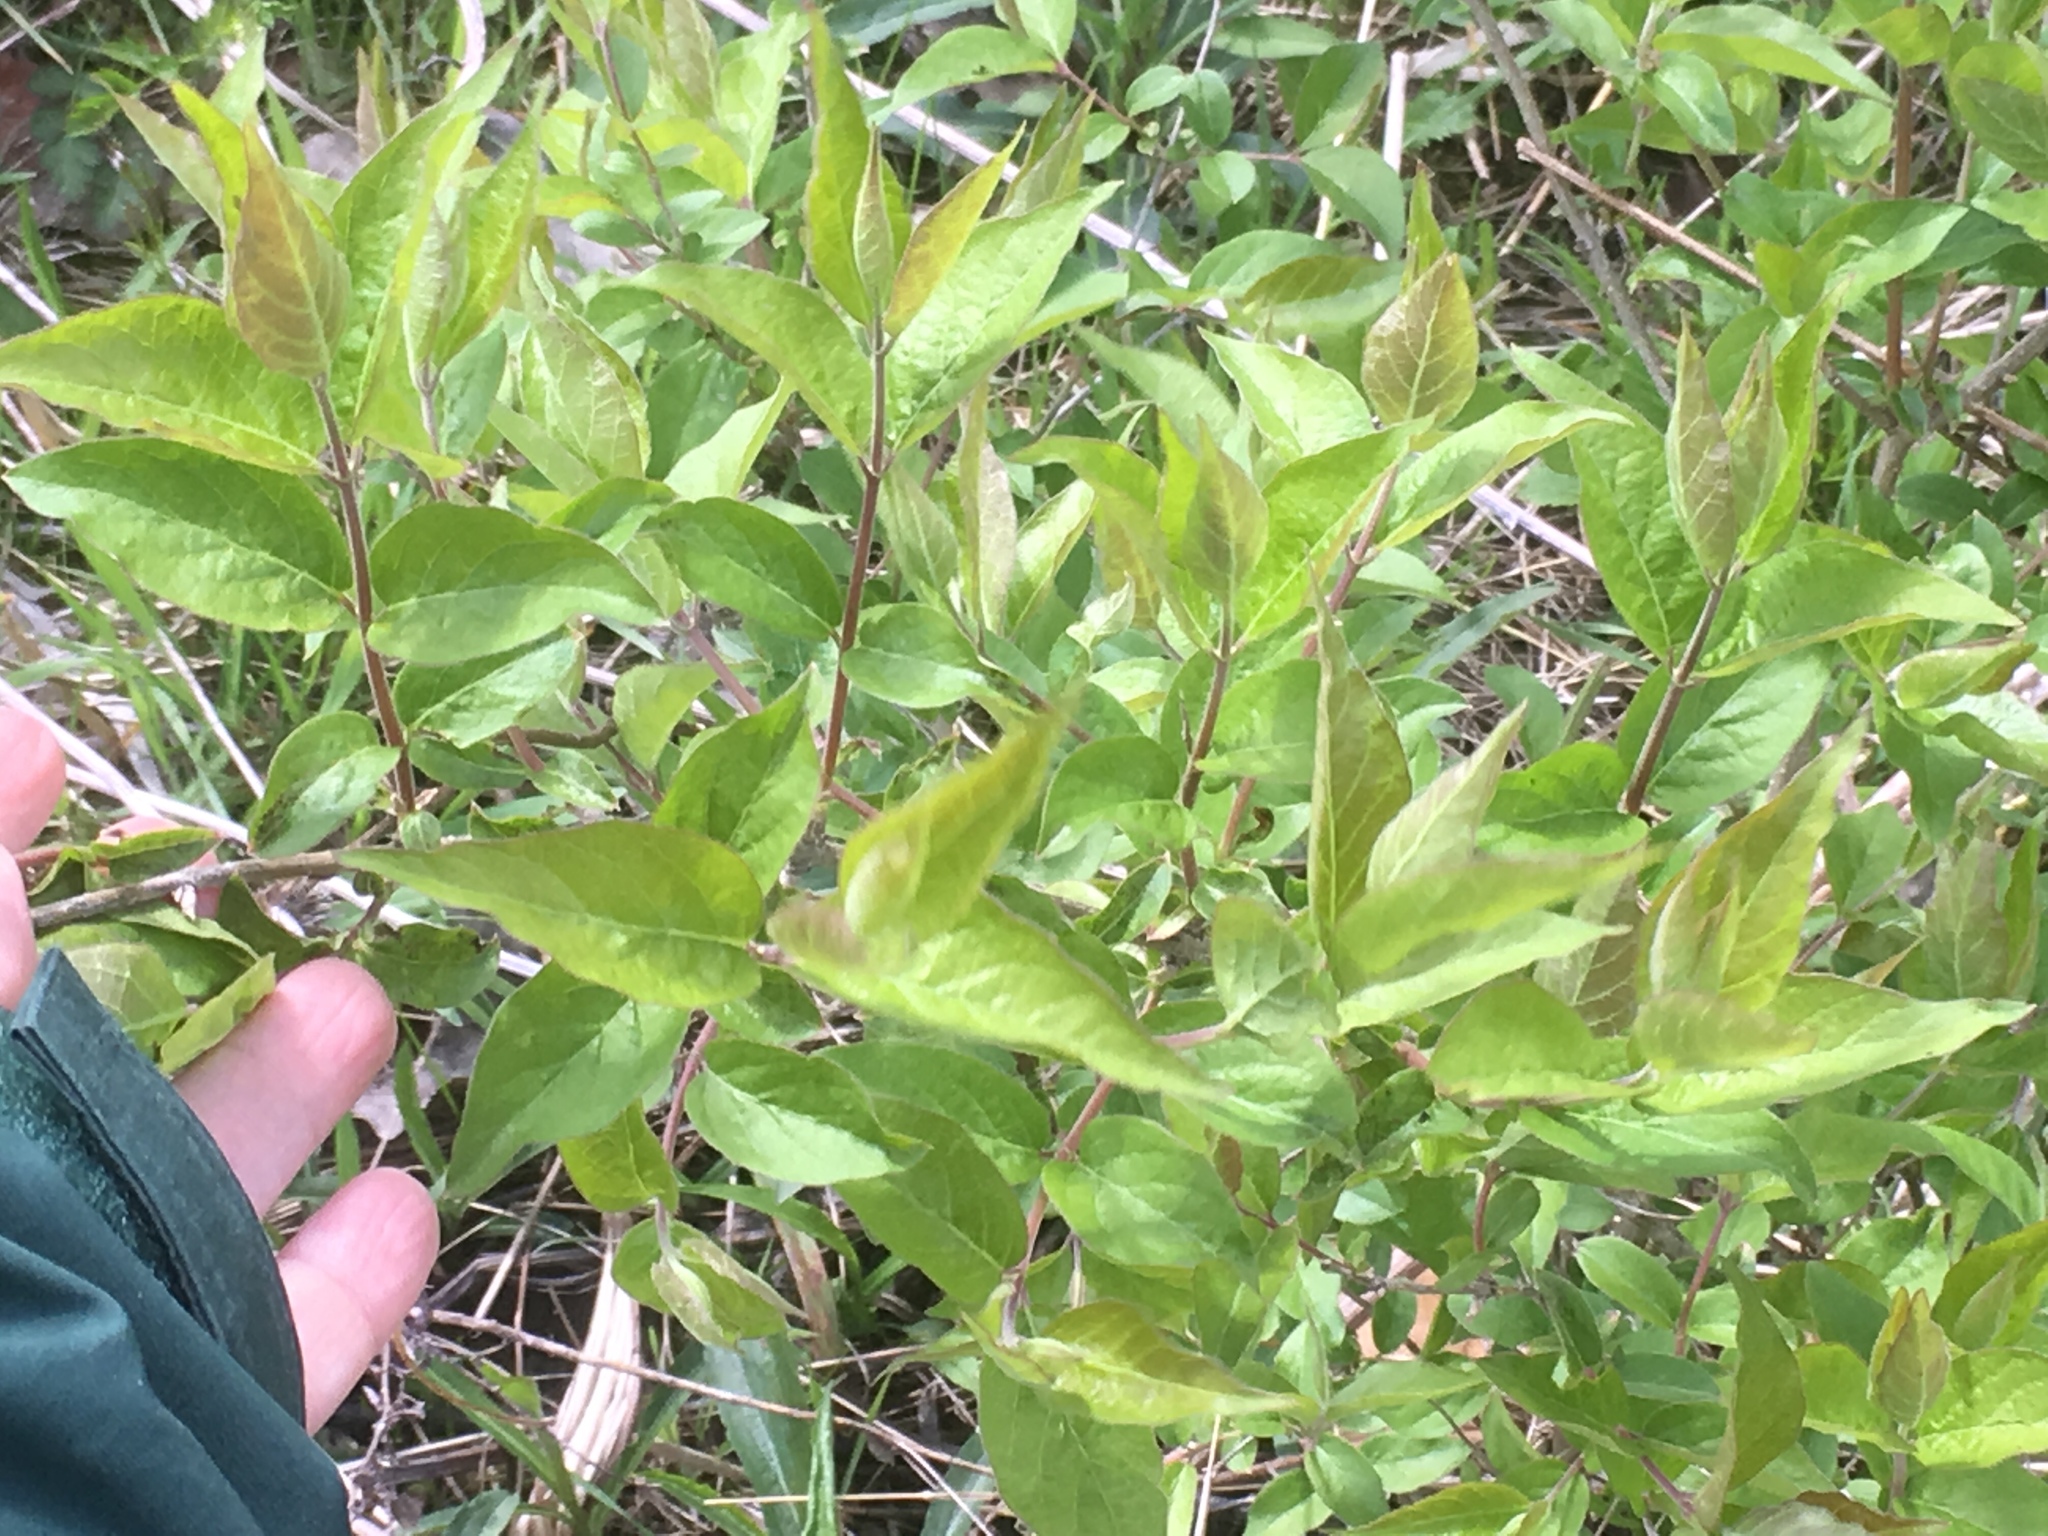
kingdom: Plantae
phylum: Tracheophyta
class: Magnoliopsida
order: Dipsacales
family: Caprifoliaceae
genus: Lonicera
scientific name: Lonicera maackii
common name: Amur honeysuckle
